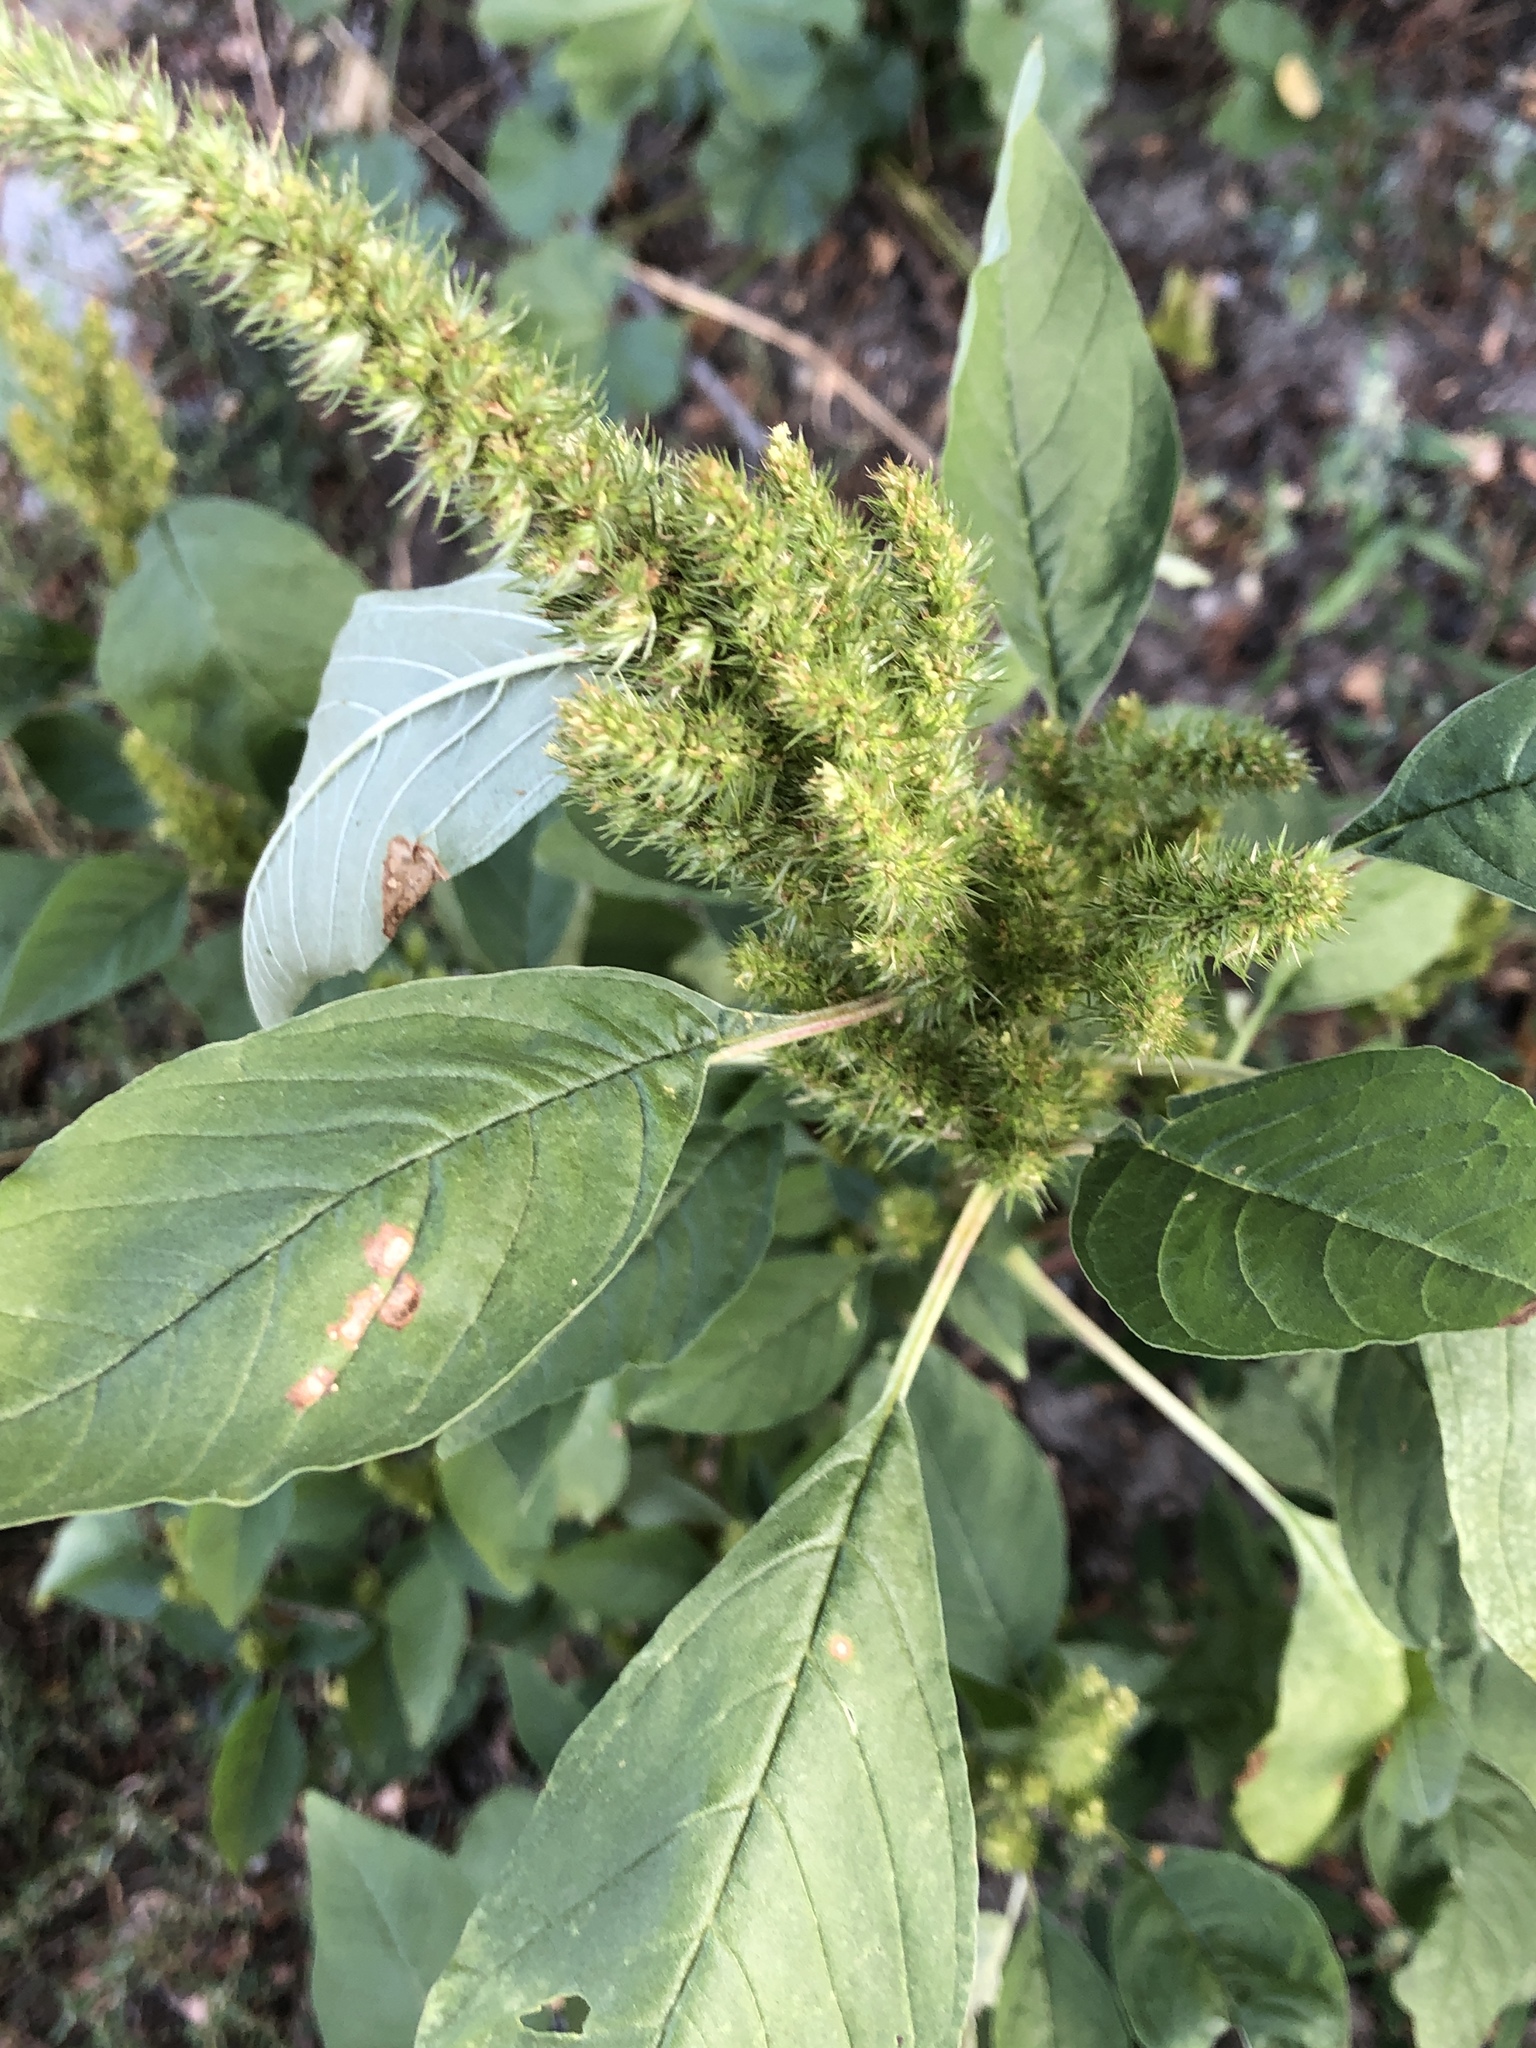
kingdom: Plantae
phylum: Tracheophyta
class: Magnoliopsida
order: Caryophyllales
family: Amaranthaceae
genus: Amaranthus
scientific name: Amaranthus retroflexus
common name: Redroot amaranth
